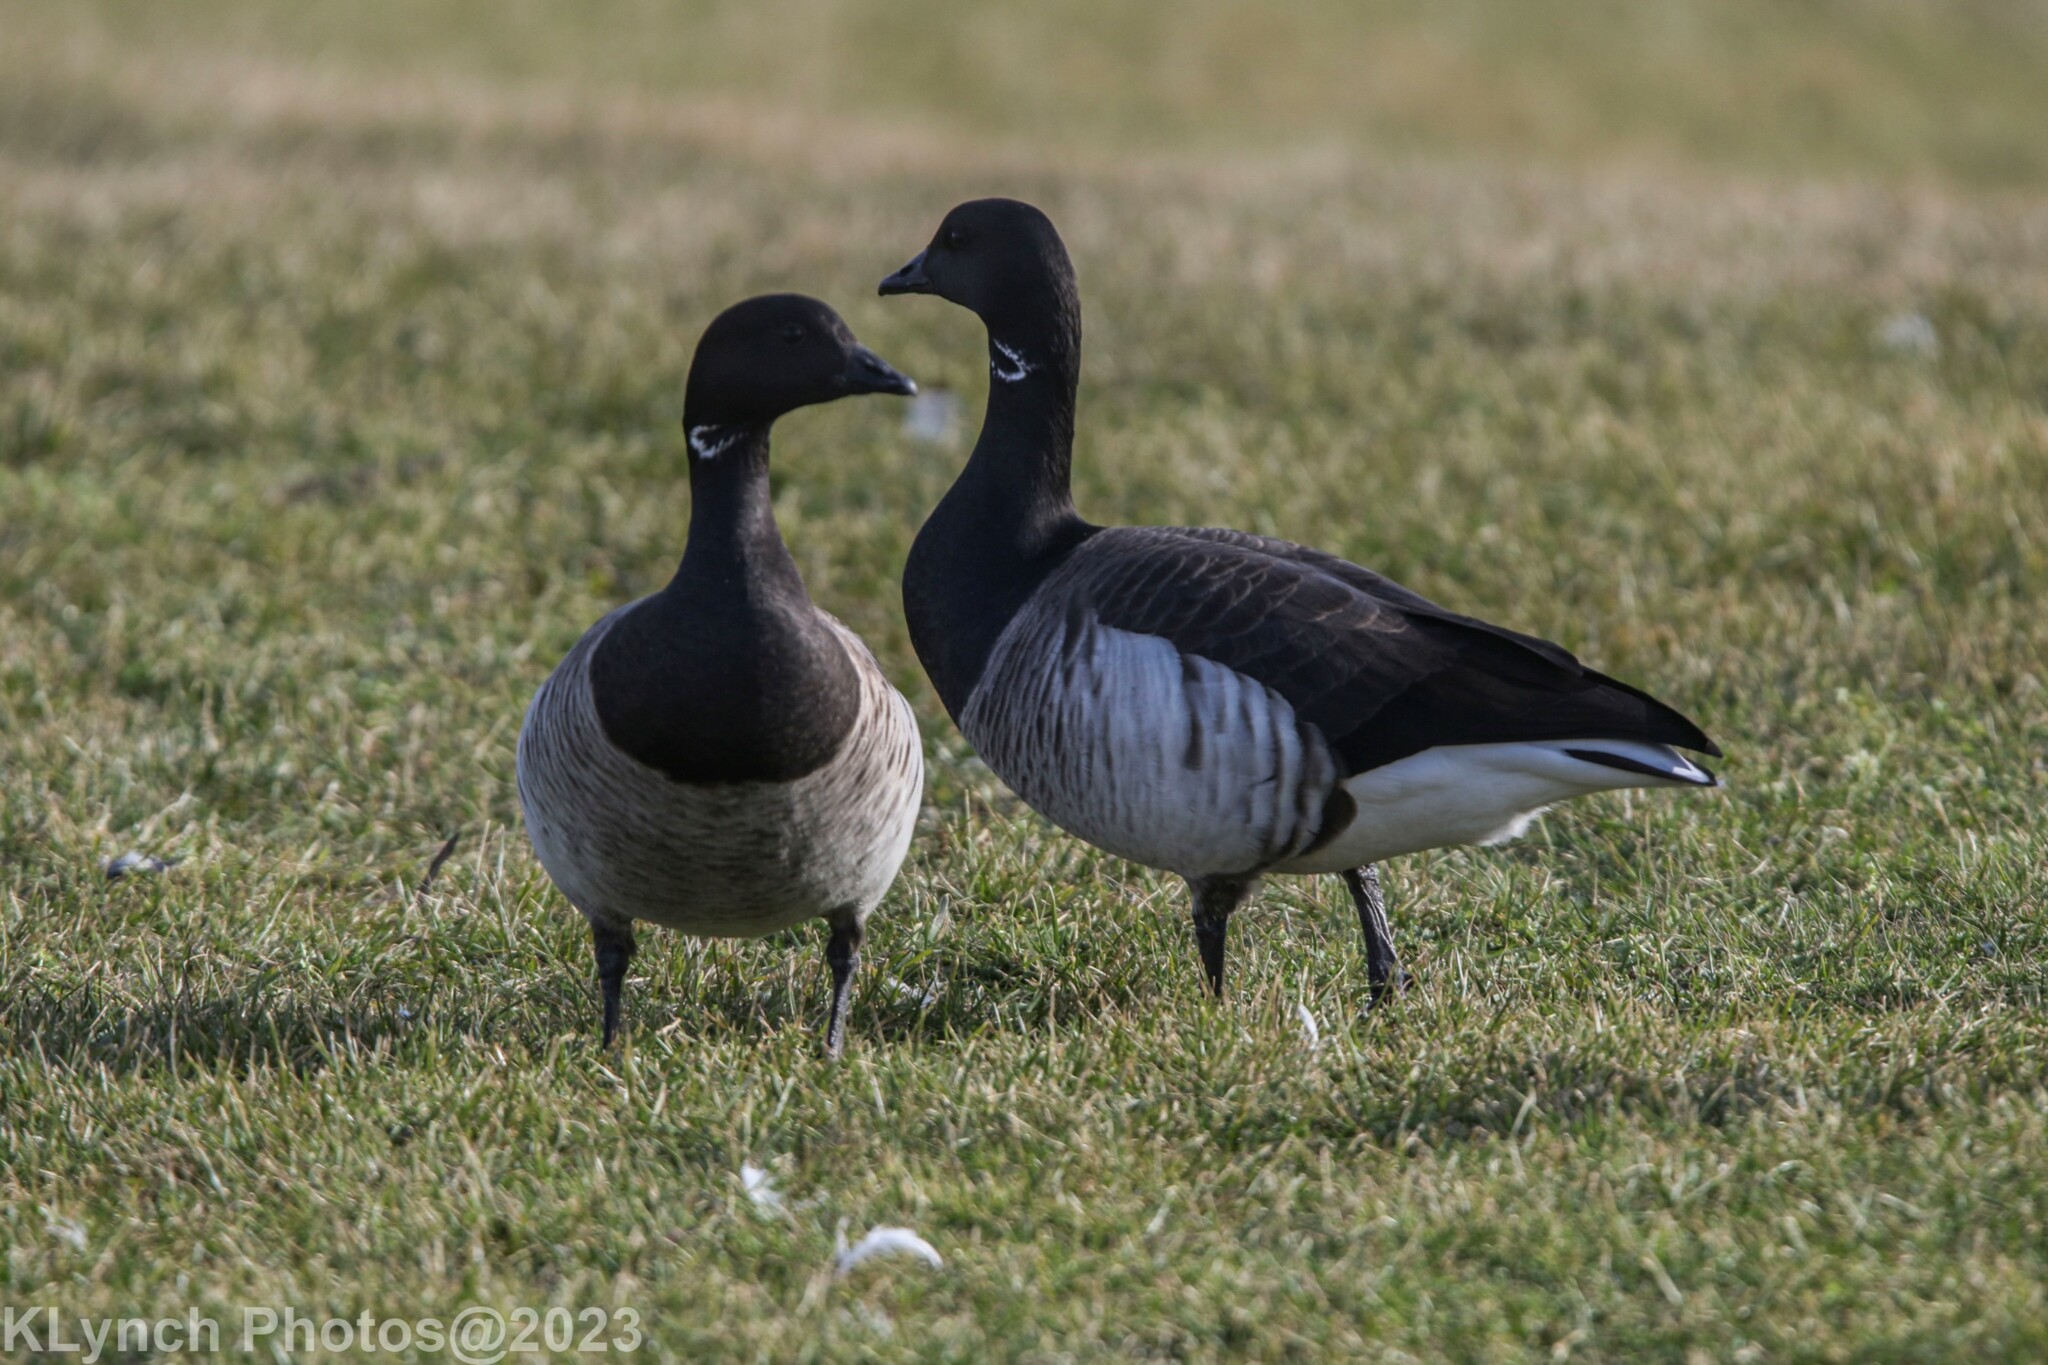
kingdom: Animalia
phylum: Chordata
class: Aves
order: Anseriformes
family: Anatidae
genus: Branta
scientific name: Branta bernicla
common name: Brant goose
